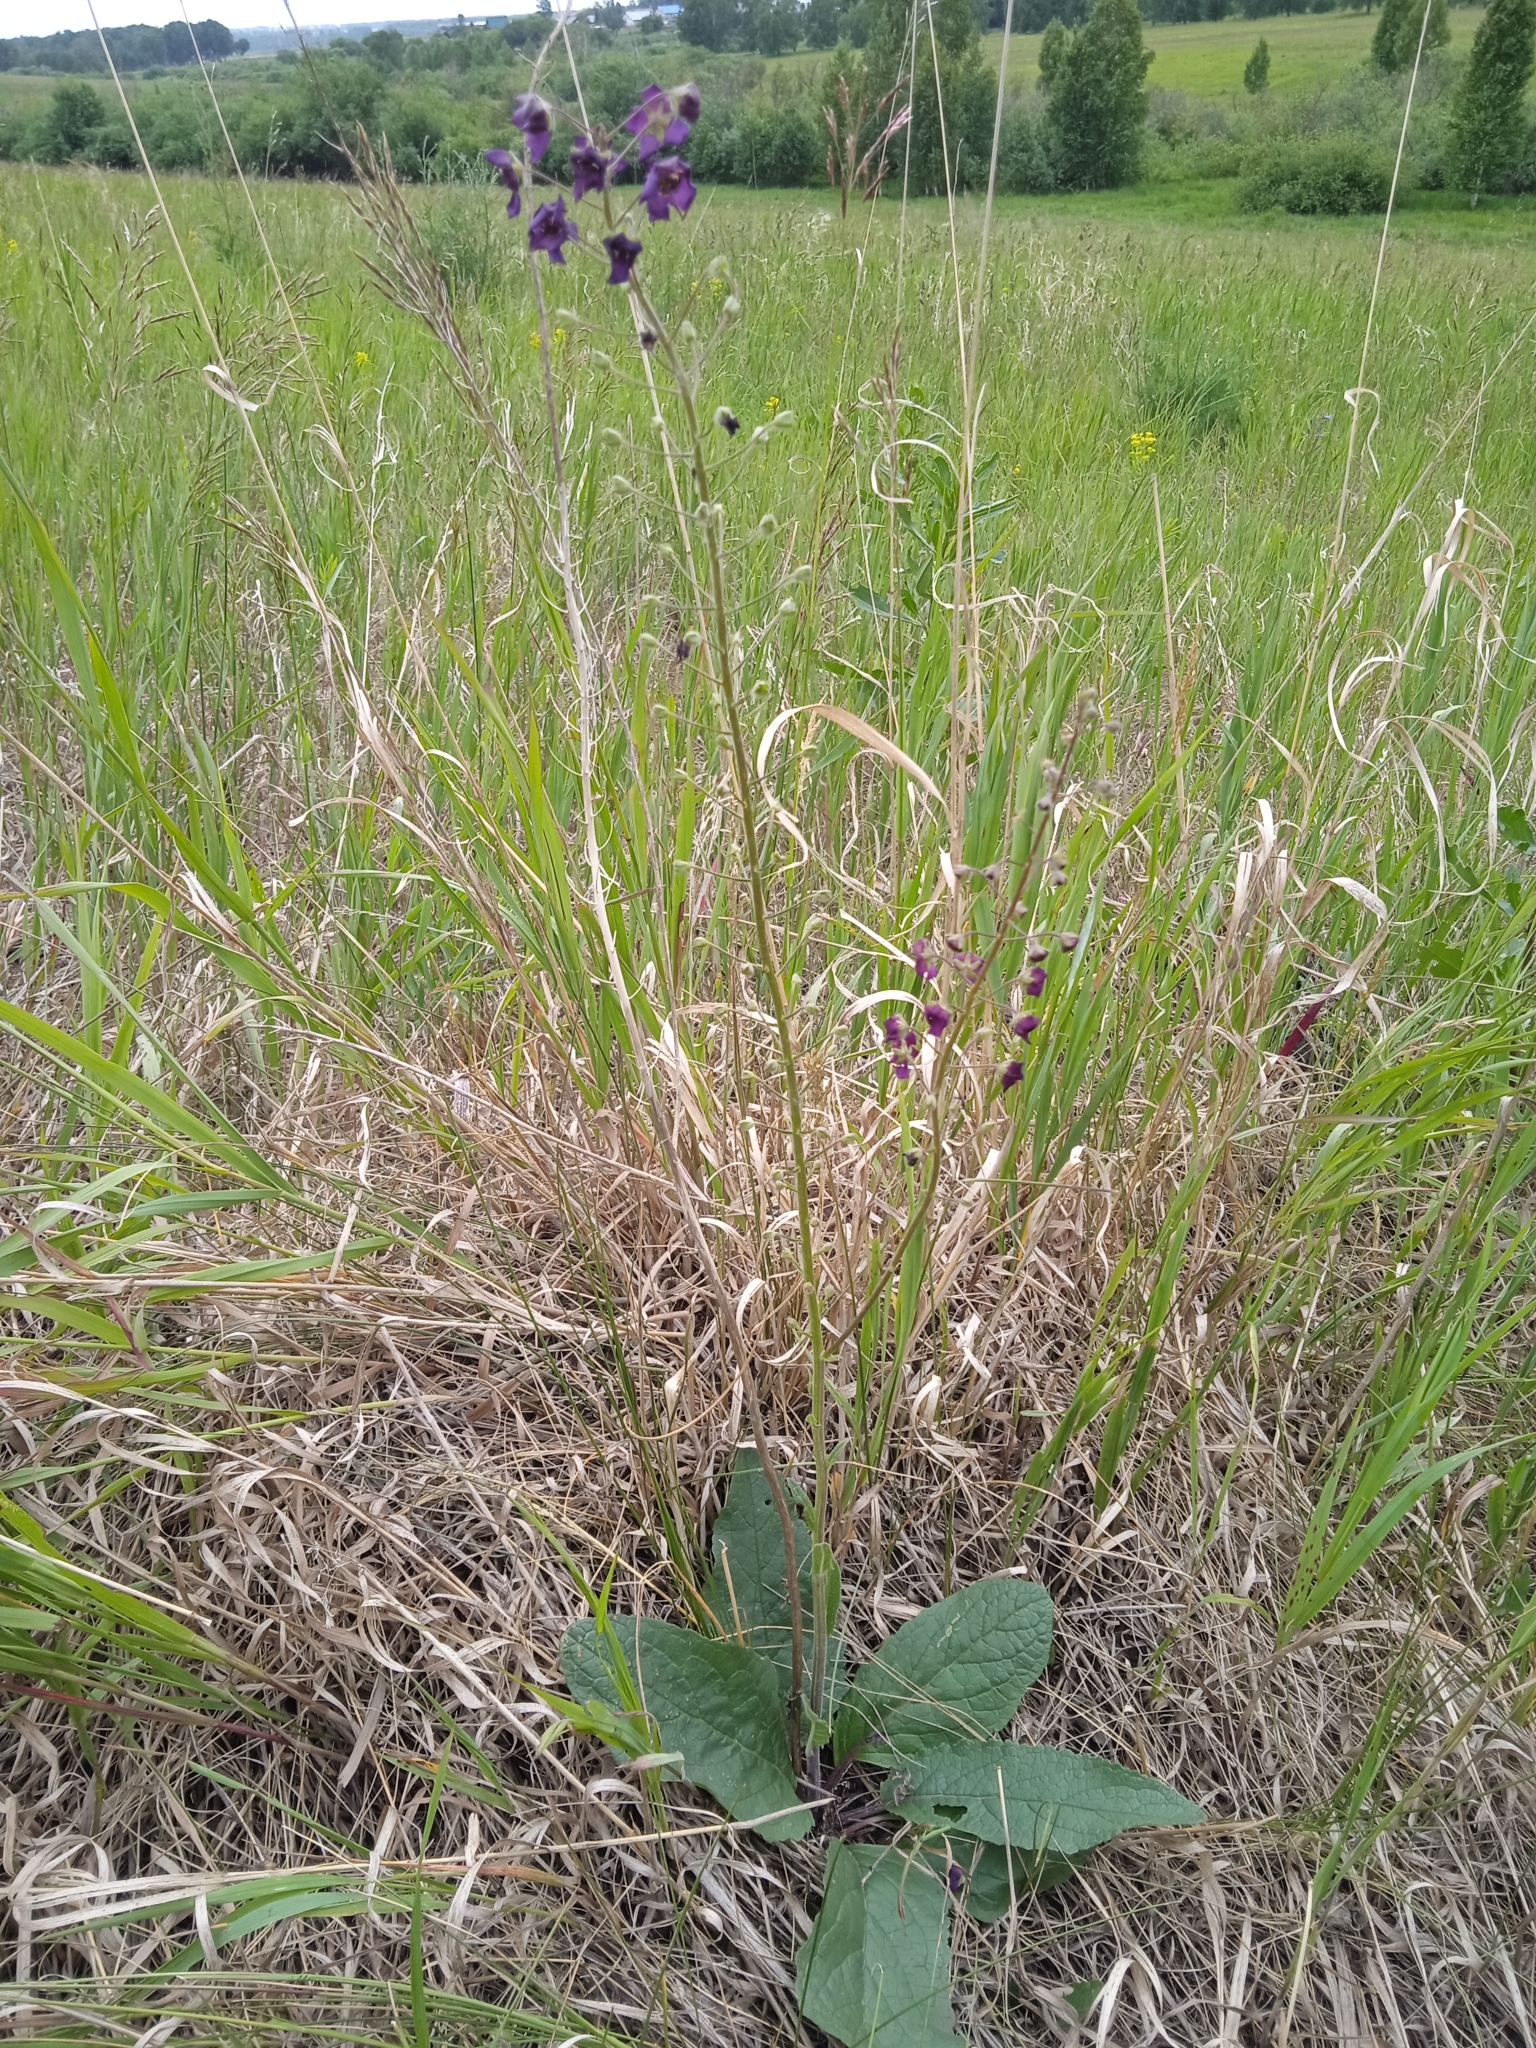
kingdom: Plantae
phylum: Tracheophyta
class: Magnoliopsida
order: Lamiales
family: Scrophulariaceae
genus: Verbascum
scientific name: Verbascum phoeniceum
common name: Purple mullein
